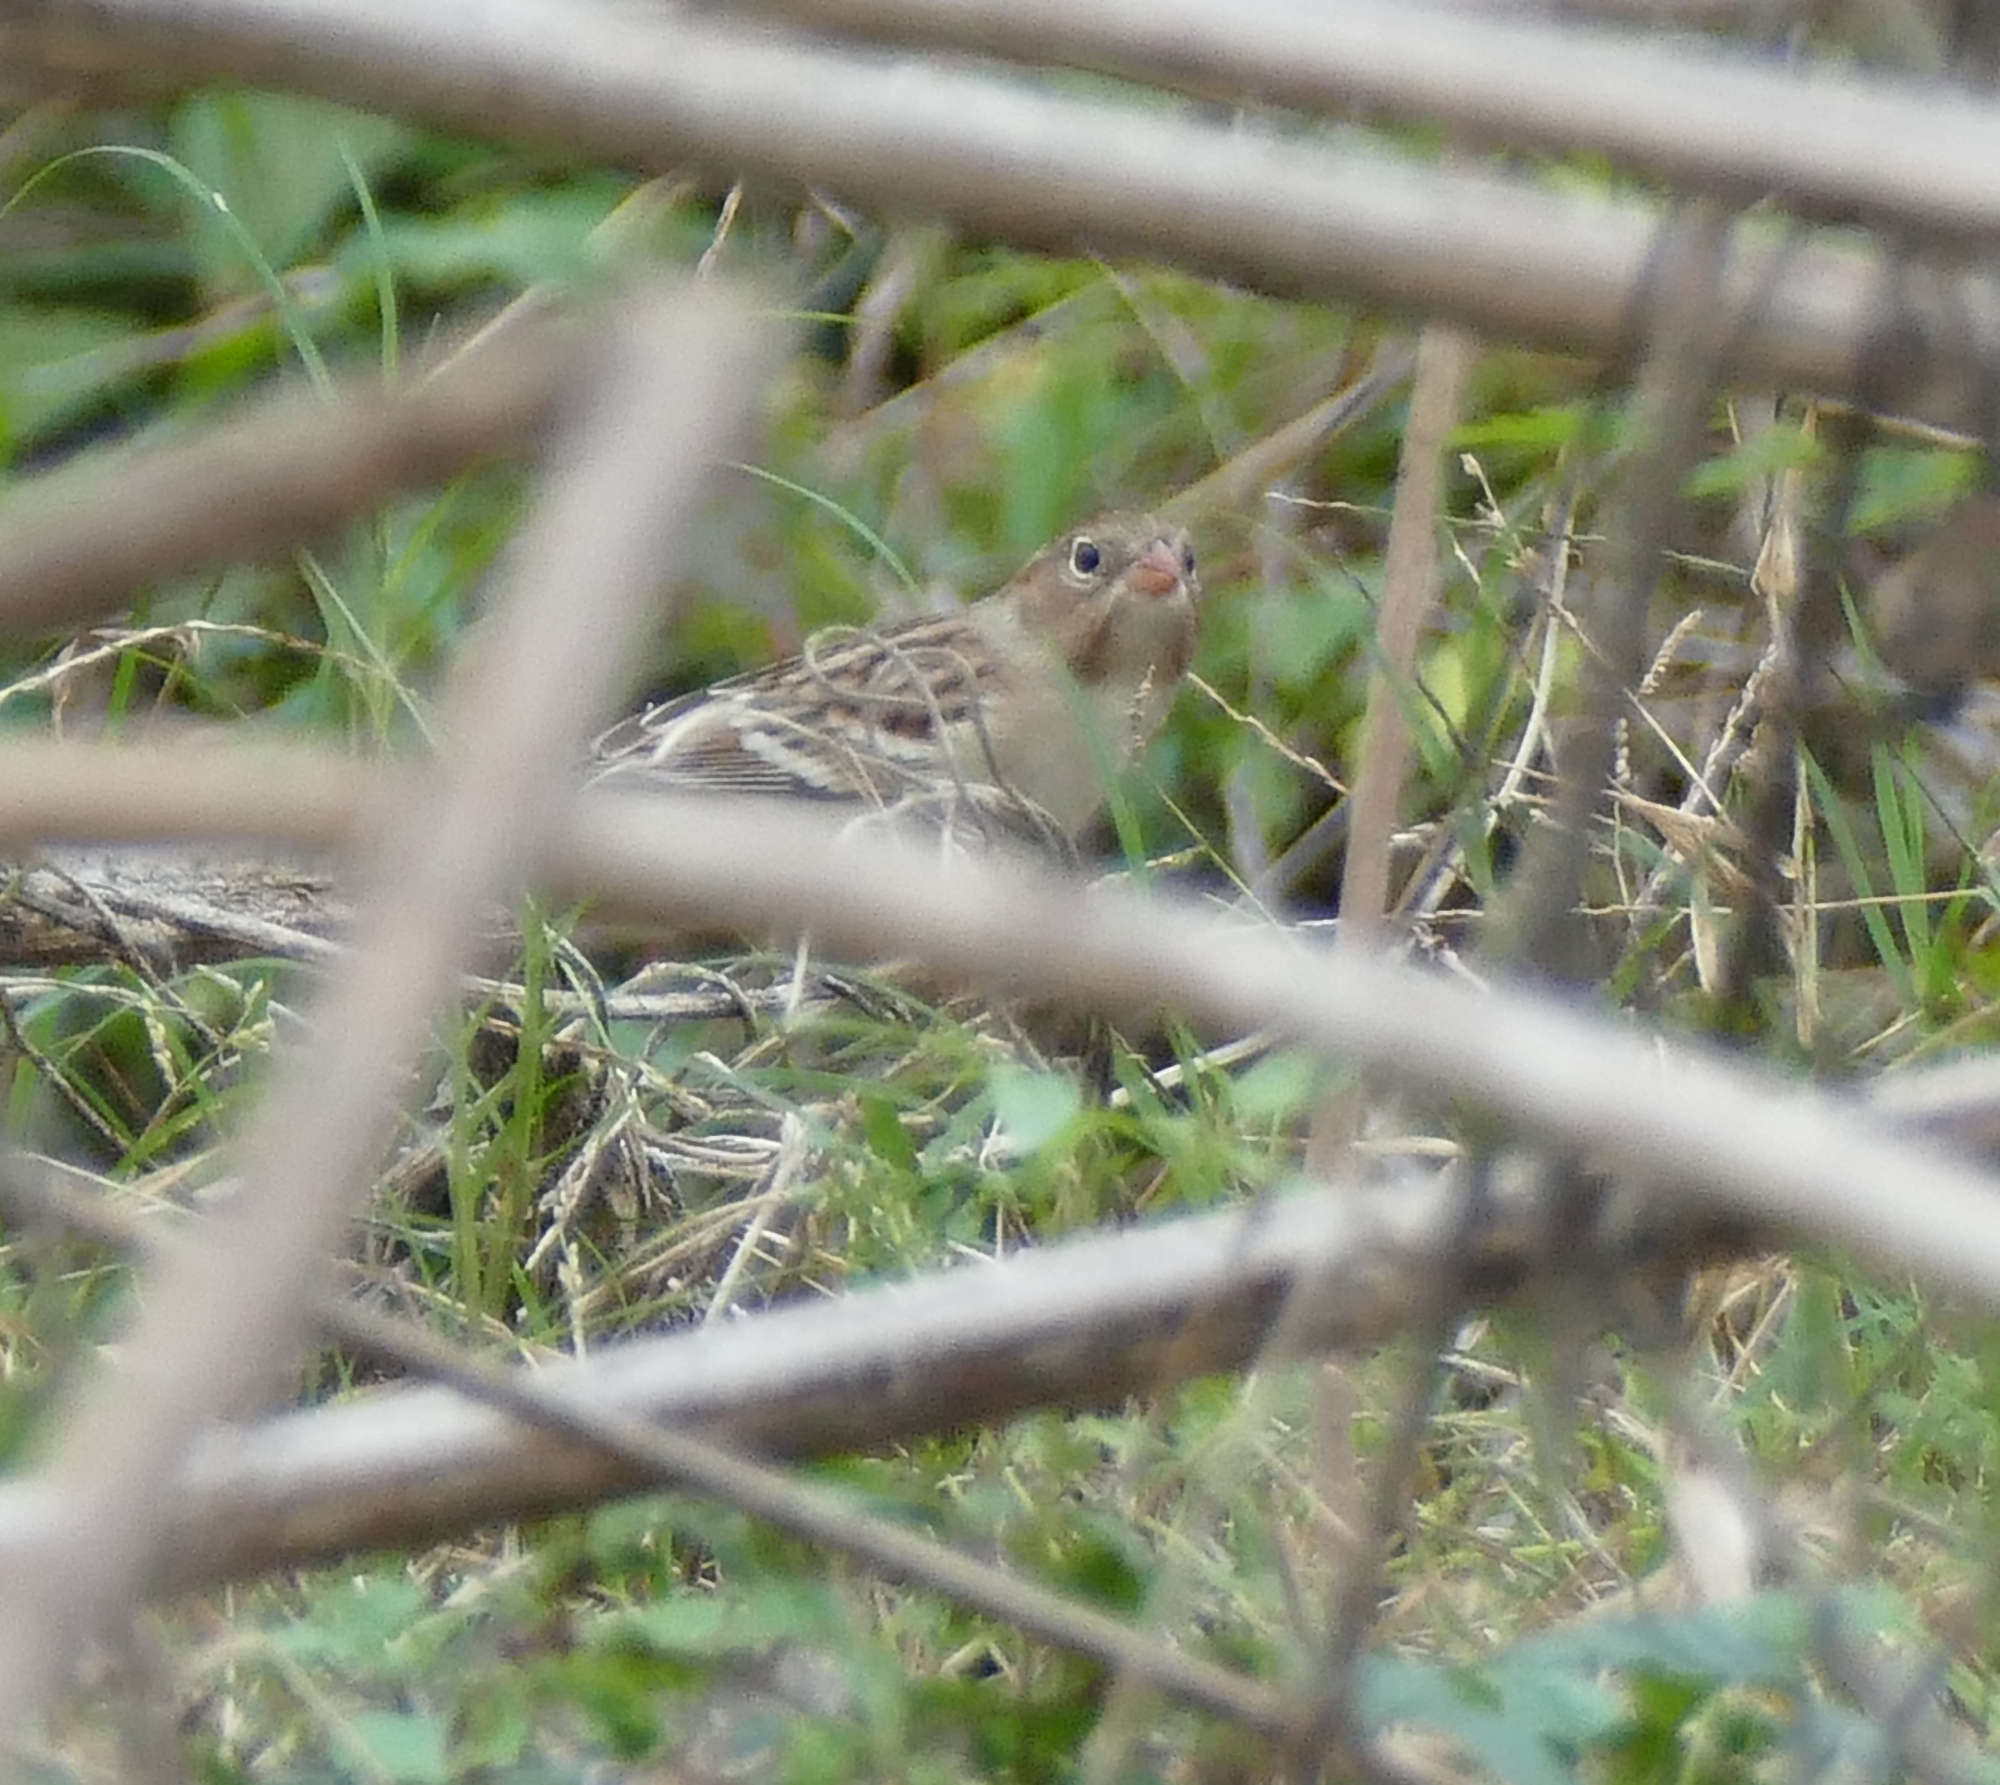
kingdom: Animalia
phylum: Chordata
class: Aves
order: Passeriformes
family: Passerellidae
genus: Spizella
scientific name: Spizella pusilla
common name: Field sparrow
